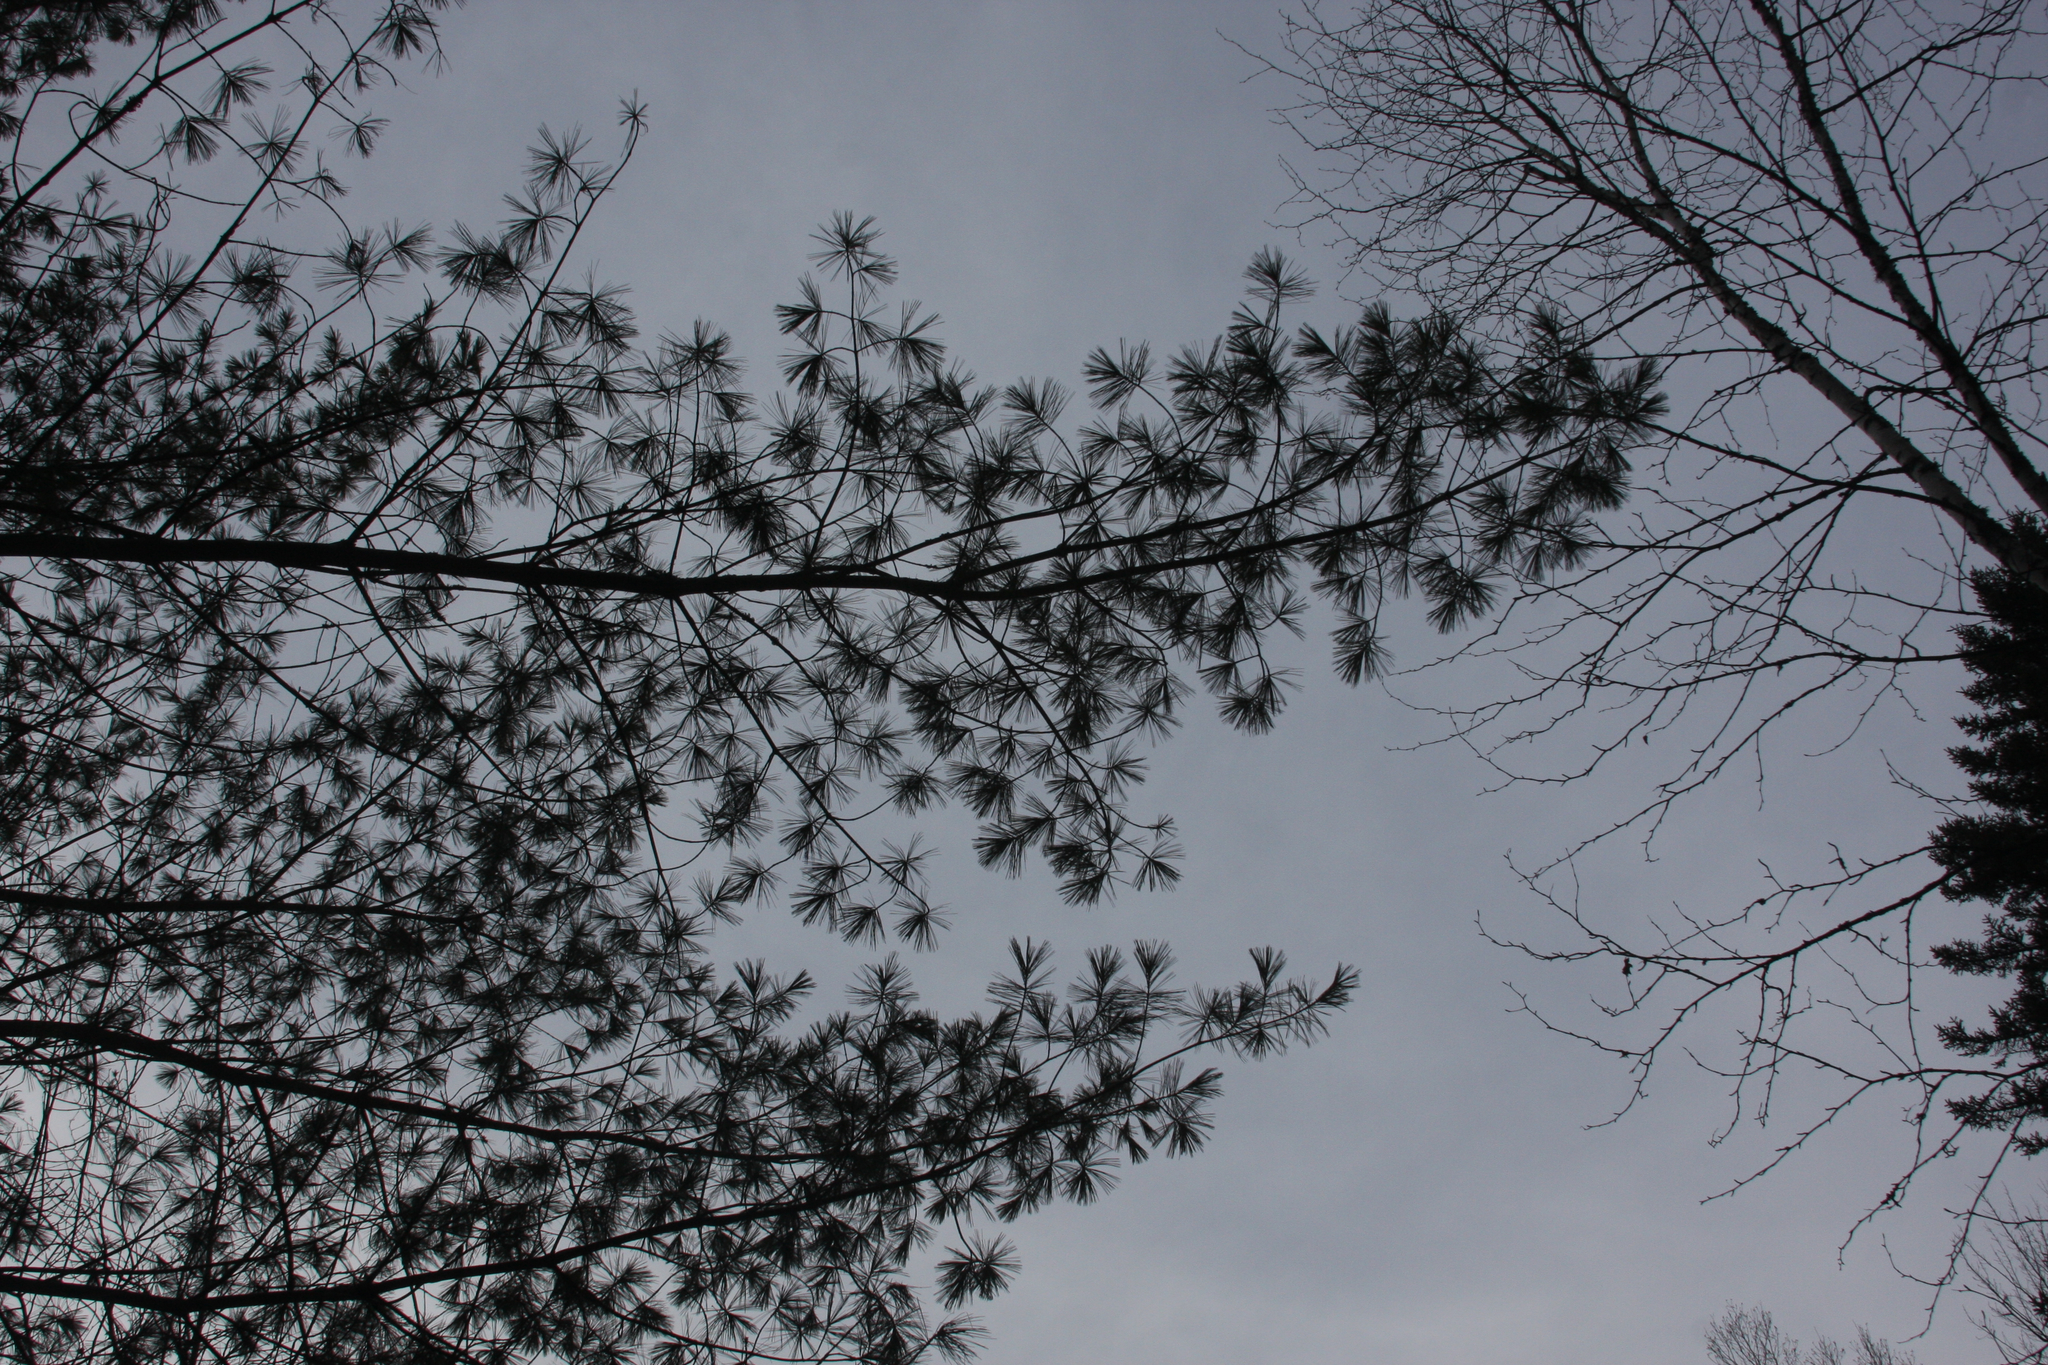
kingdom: Plantae
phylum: Tracheophyta
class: Pinopsida
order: Pinales
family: Pinaceae
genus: Pinus
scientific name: Pinus strobus
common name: Weymouth pine
